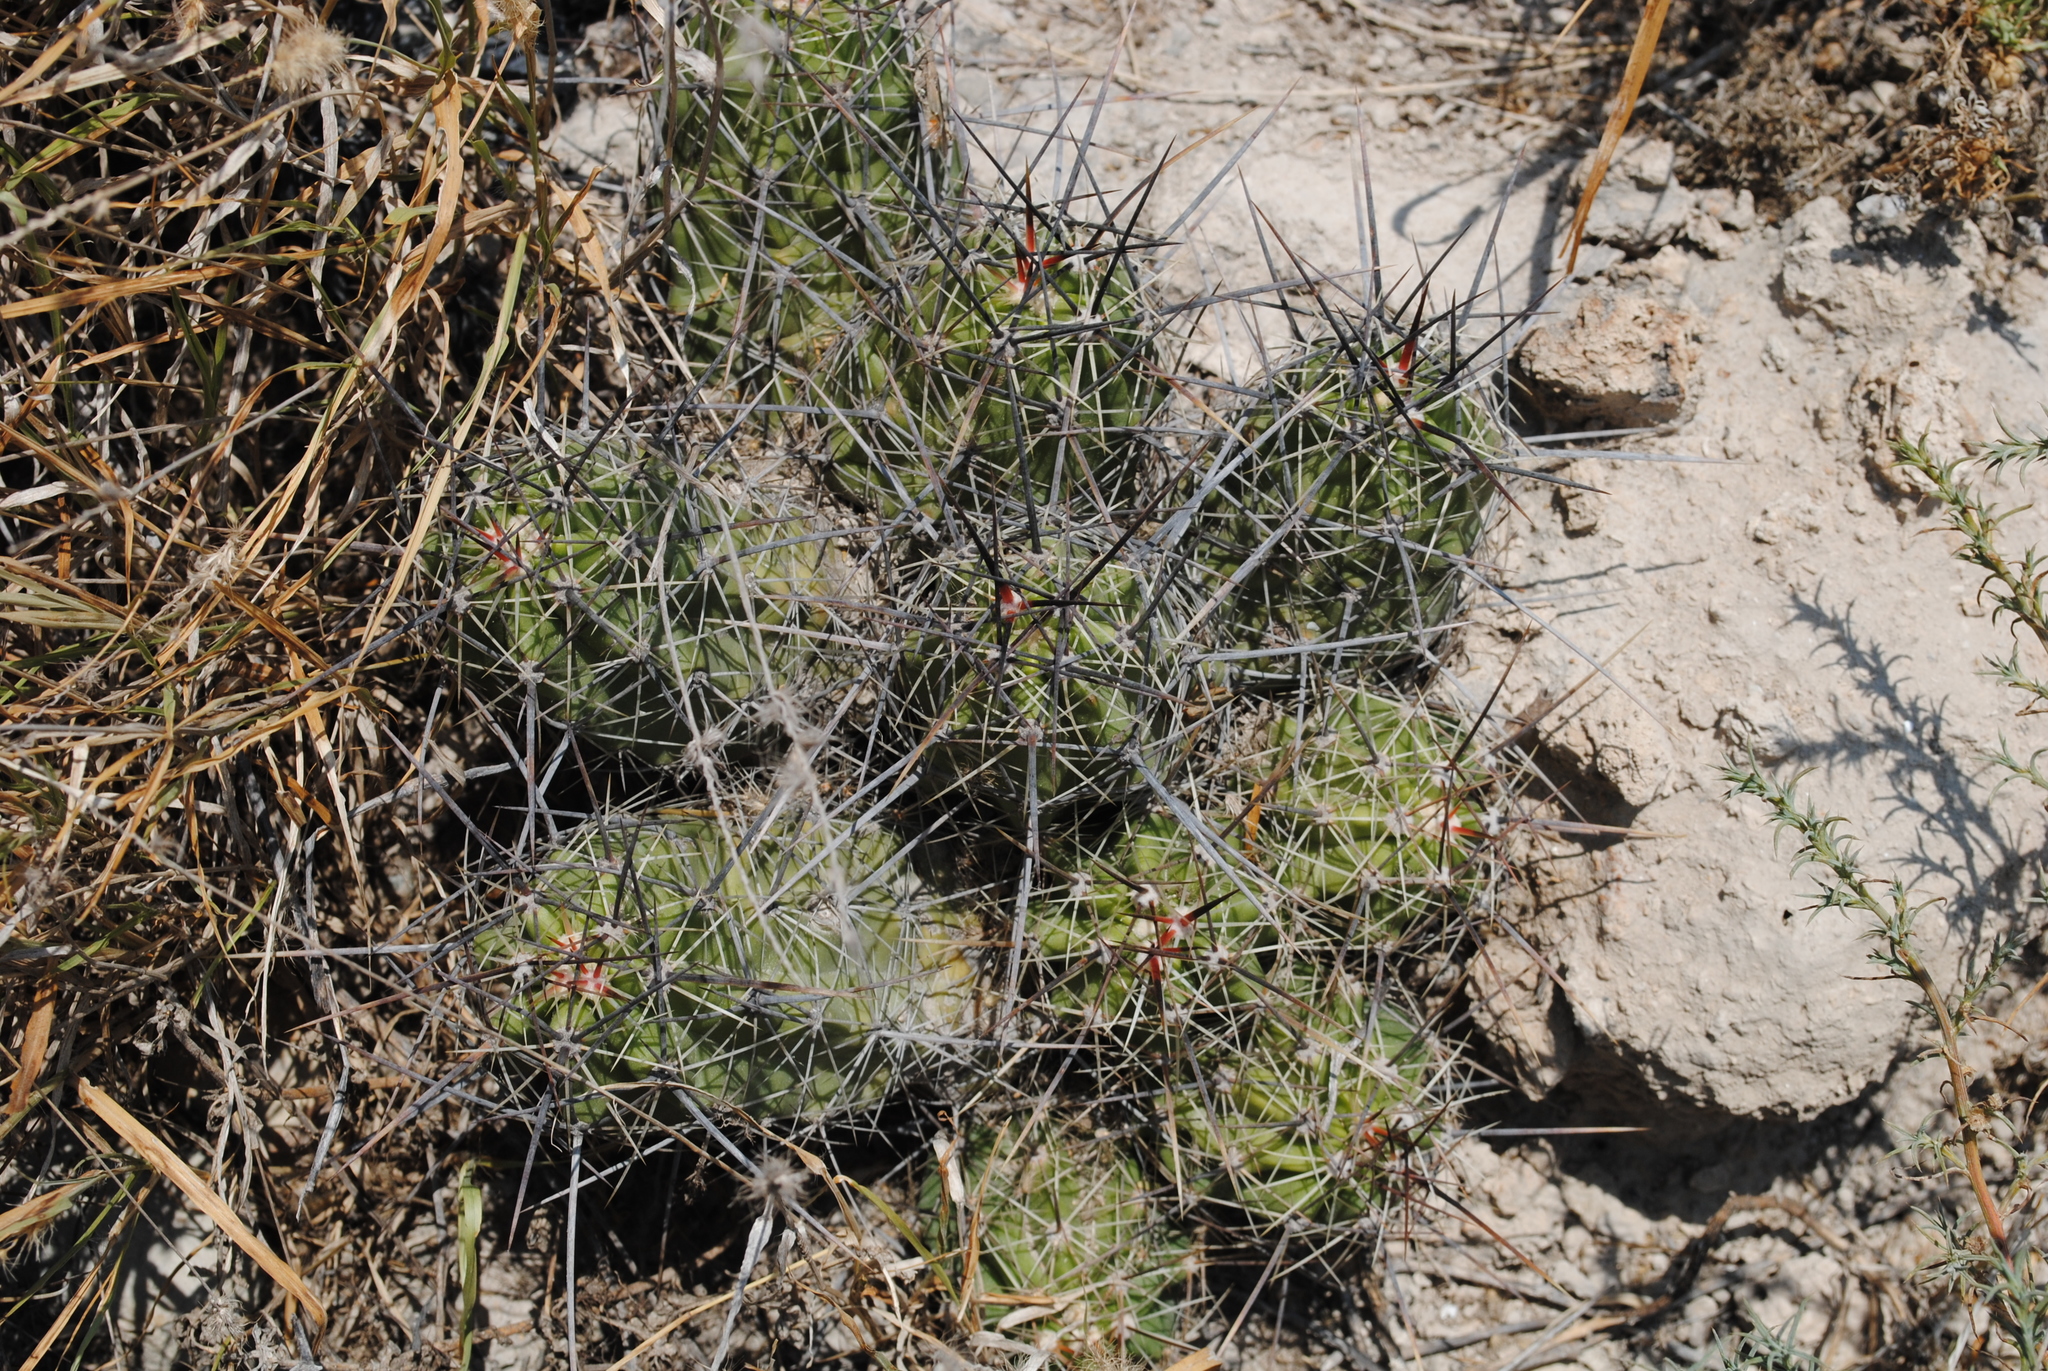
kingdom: Plantae
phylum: Tracheophyta
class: Magnoliopsida
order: Caryophyllales
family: Cactaceae
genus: Echinocereus
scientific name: Echinocereus enneacanthus
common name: Pitaya
